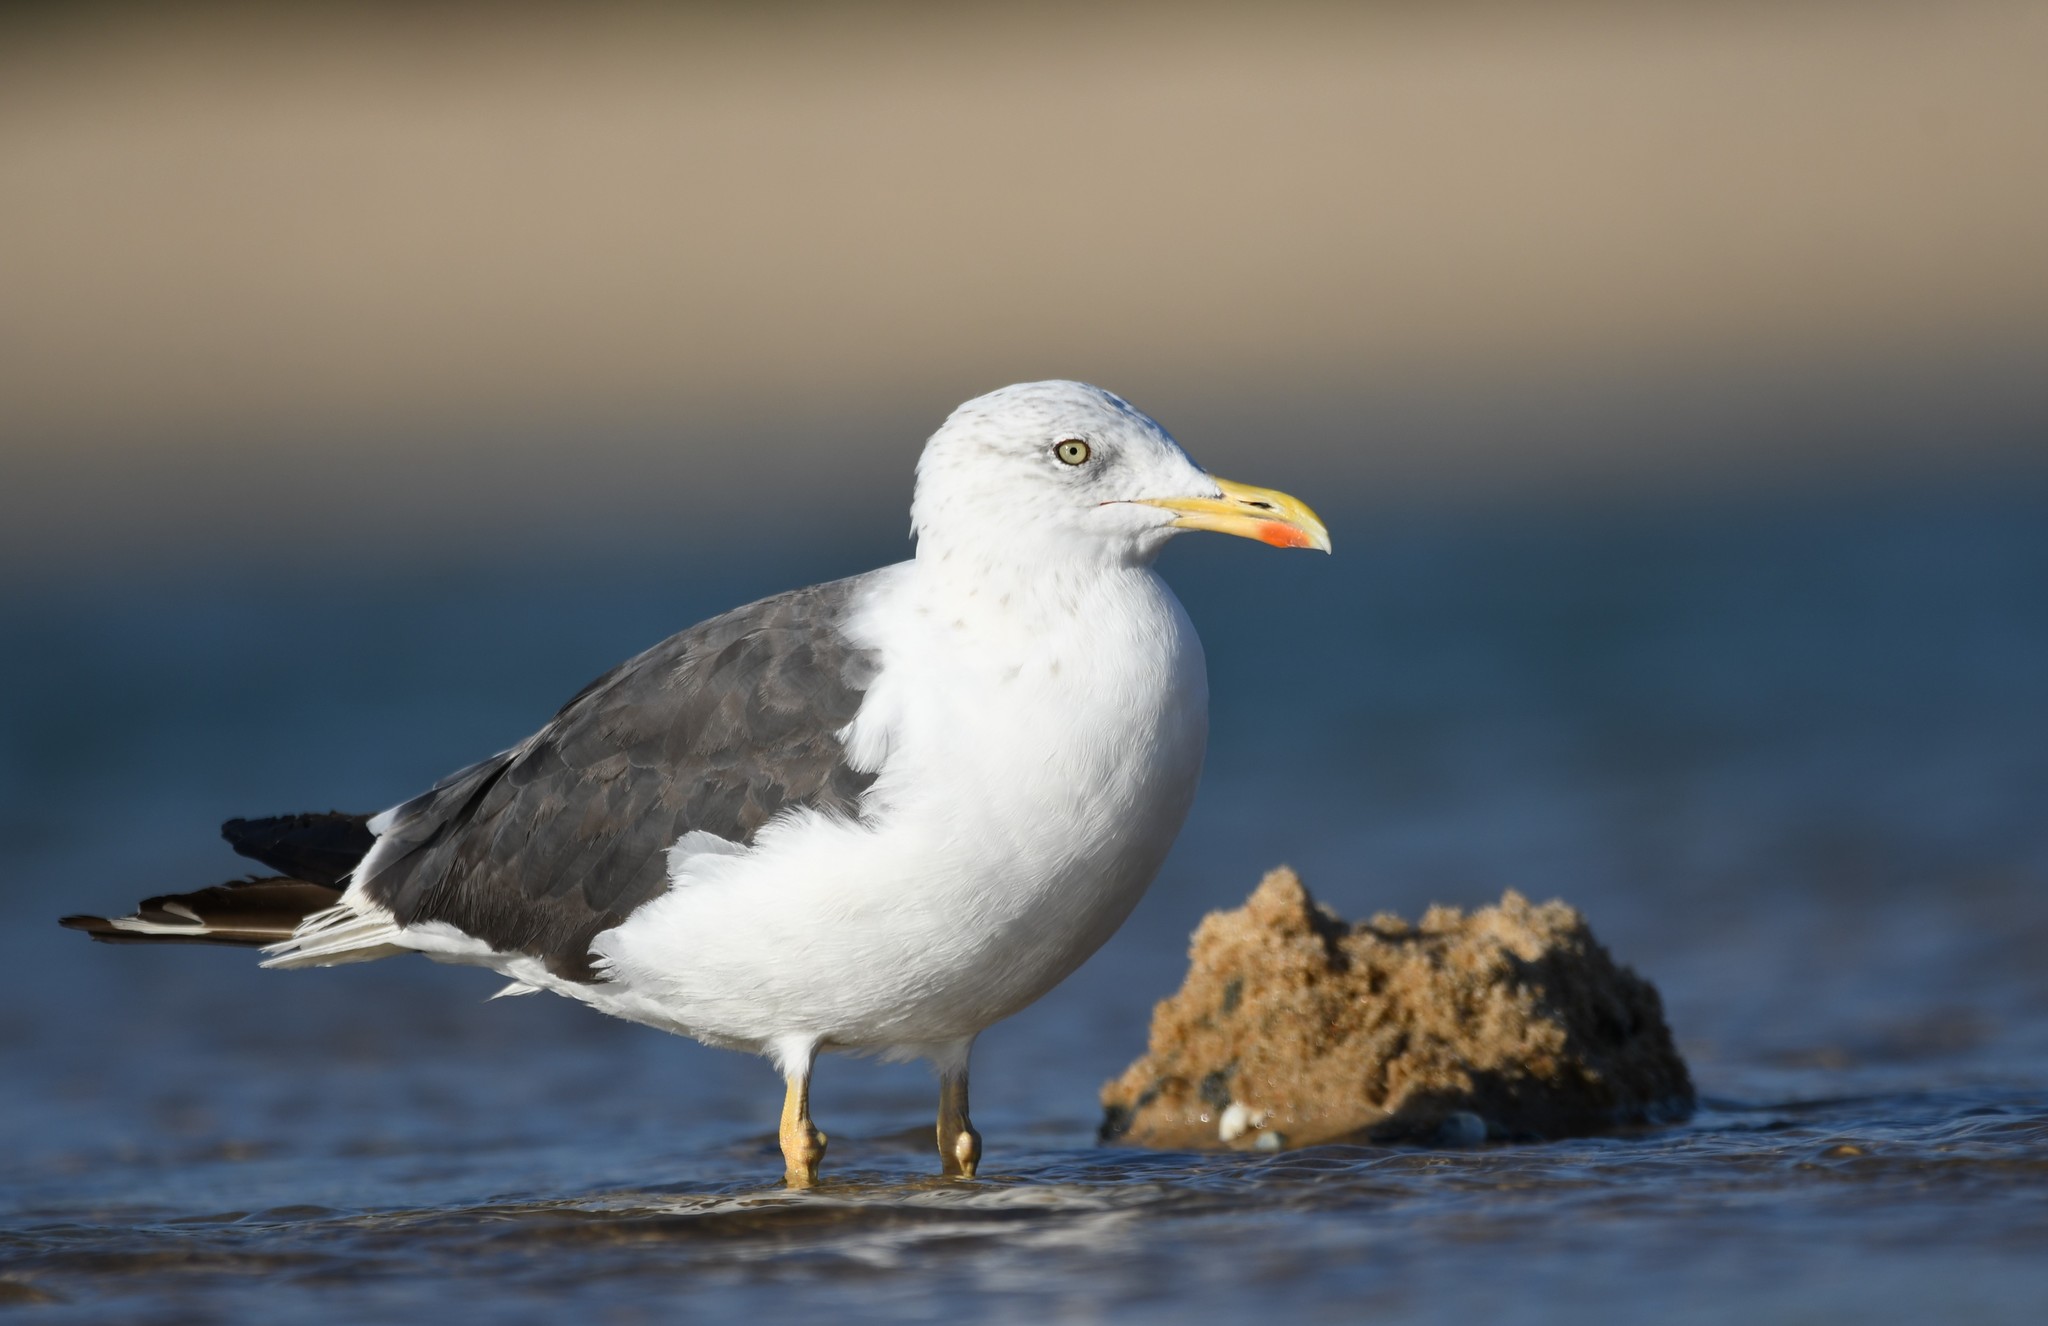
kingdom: Animalia
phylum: Chordata
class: Aves
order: Charadriiformes
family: Laridae
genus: Larus
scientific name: Larus fuscus
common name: Lesser black-backed gull
